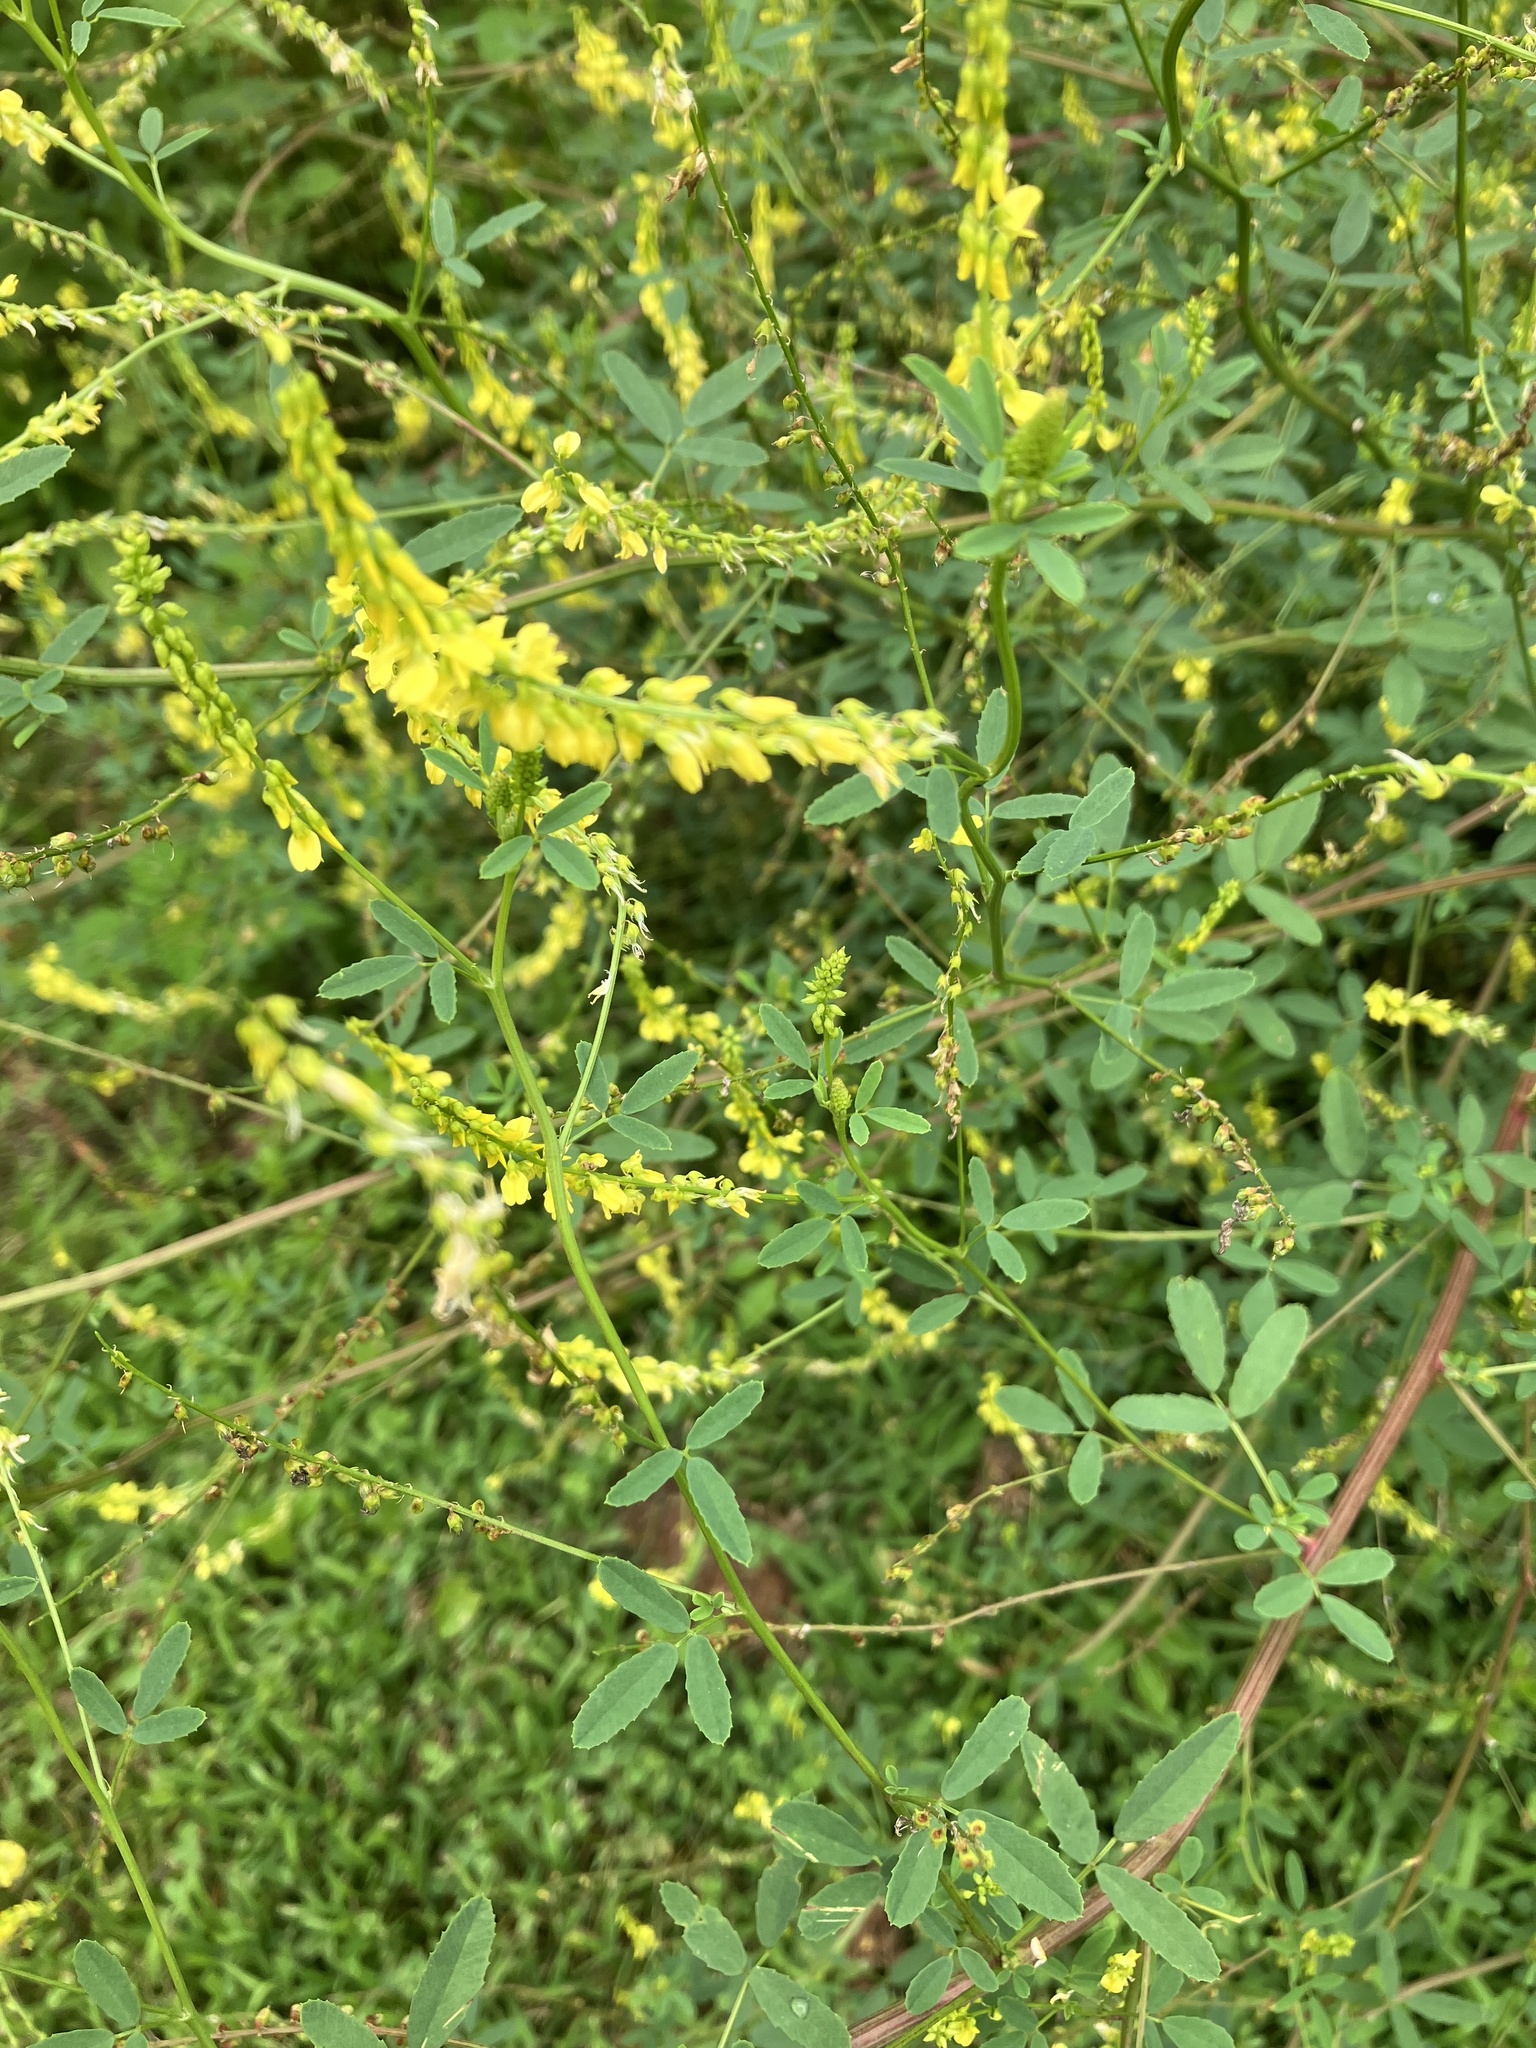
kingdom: Plantae
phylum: Tracheophyta
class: Magnoliopsida
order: Fabales
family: Fabaceae
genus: Melilotus
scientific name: Melilotus officinalis
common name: Sweetclover
